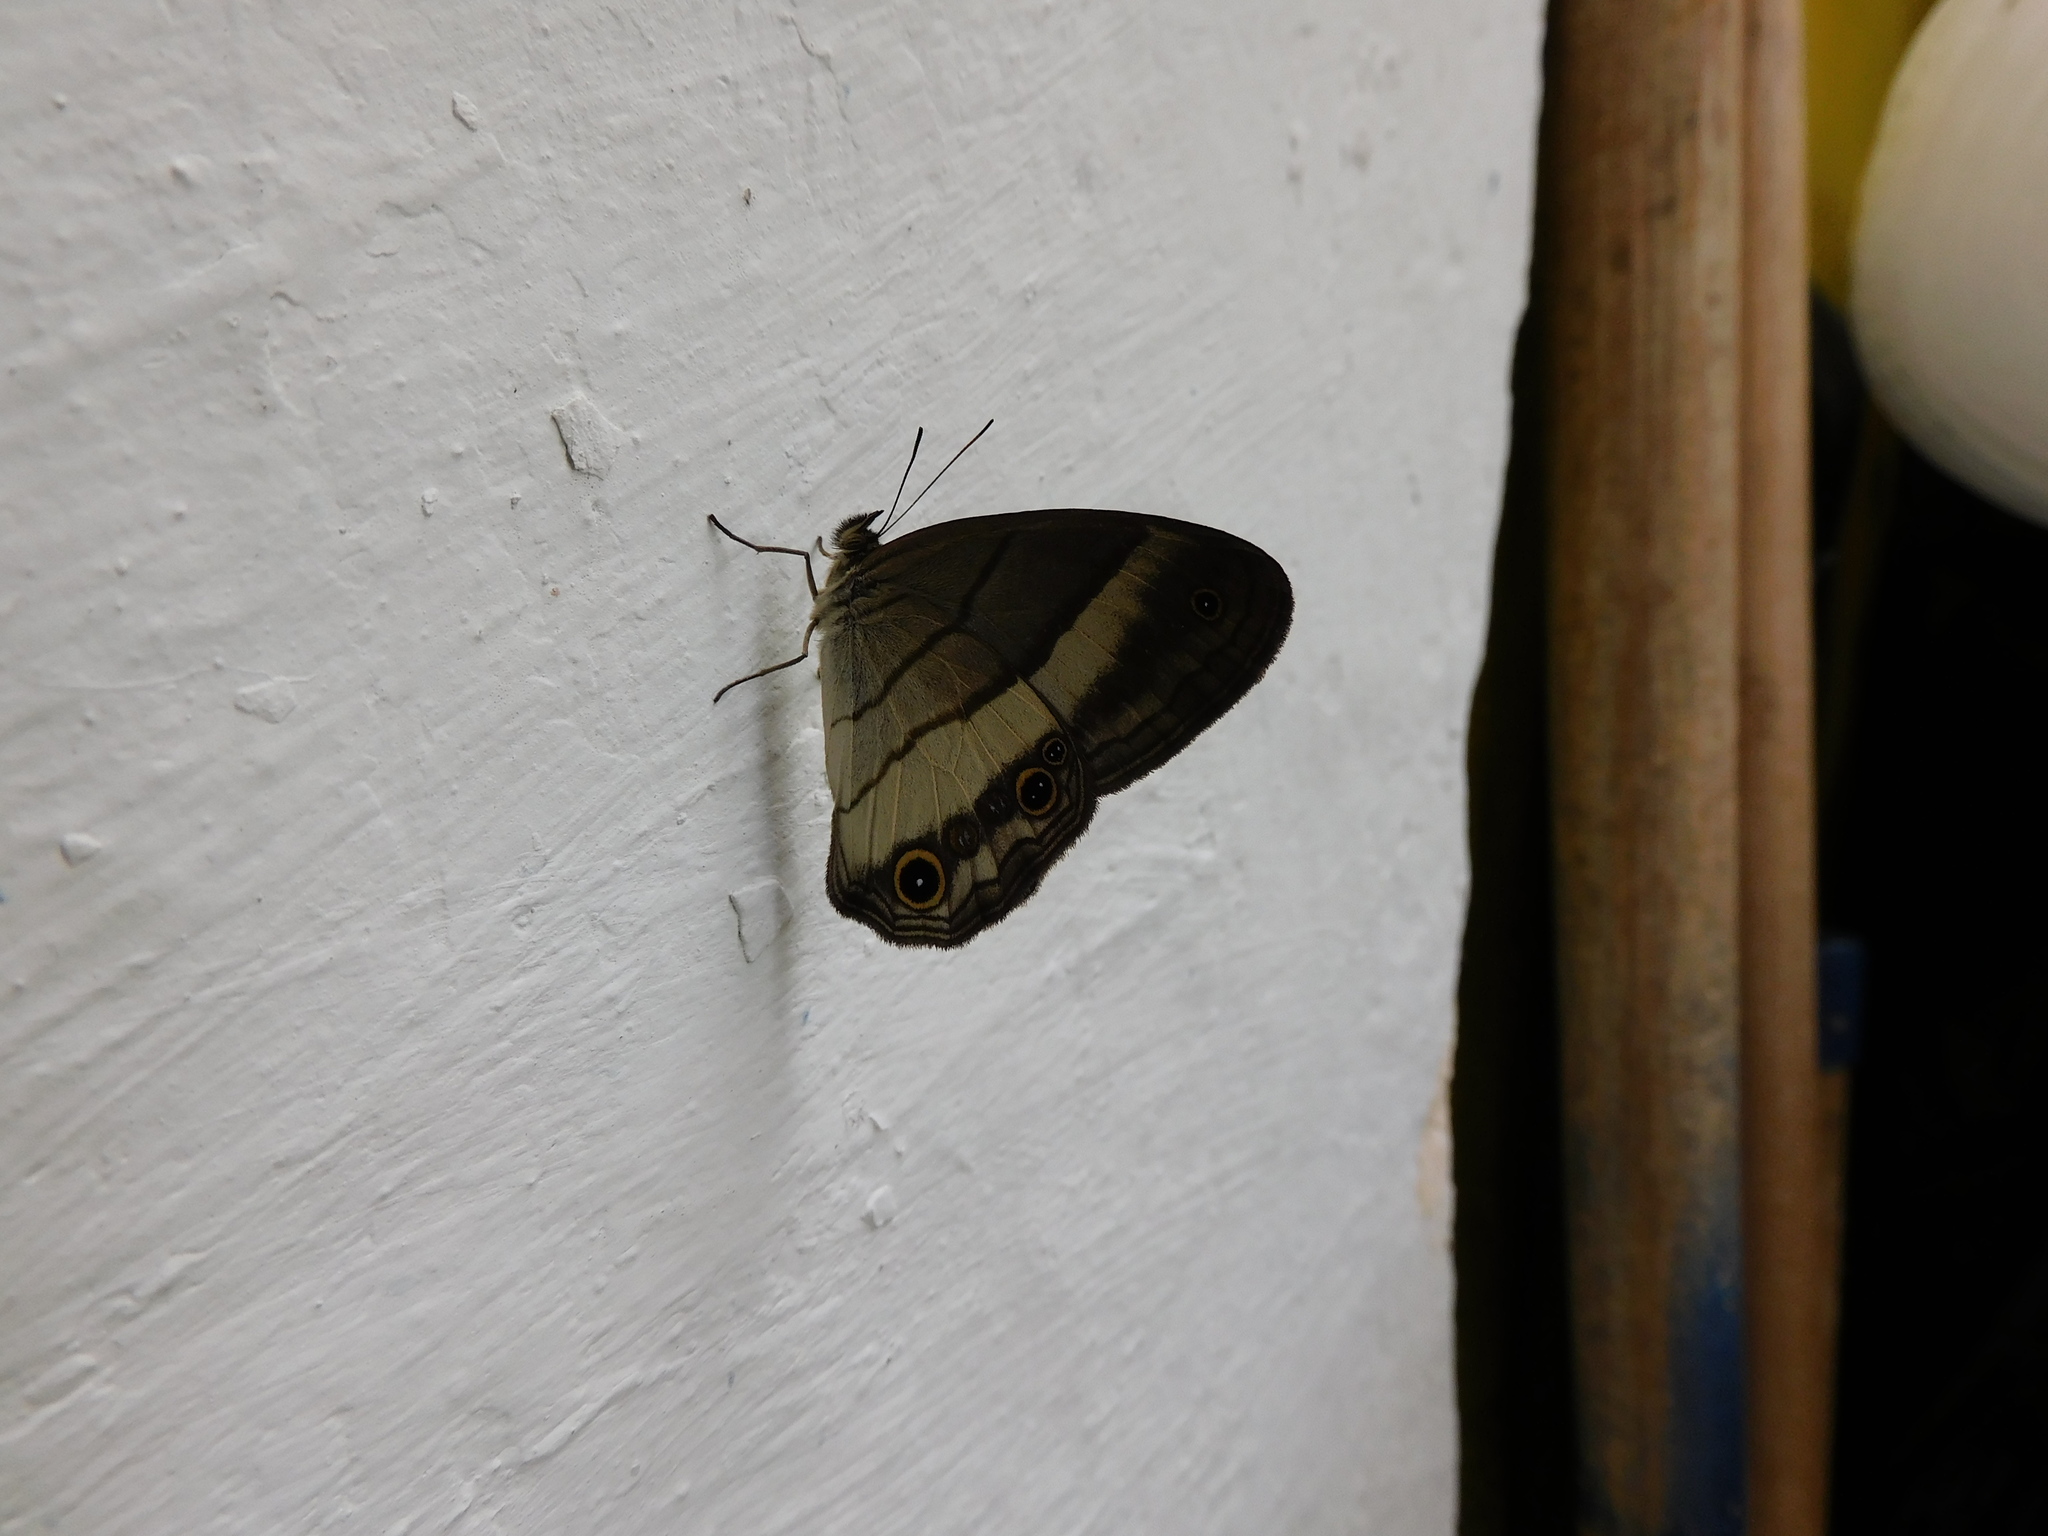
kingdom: Animalia
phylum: Arthropoda
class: Insecta
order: Lepidoptera
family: Nymphalidae
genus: Euptychoides
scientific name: Euptychoides saturnus
